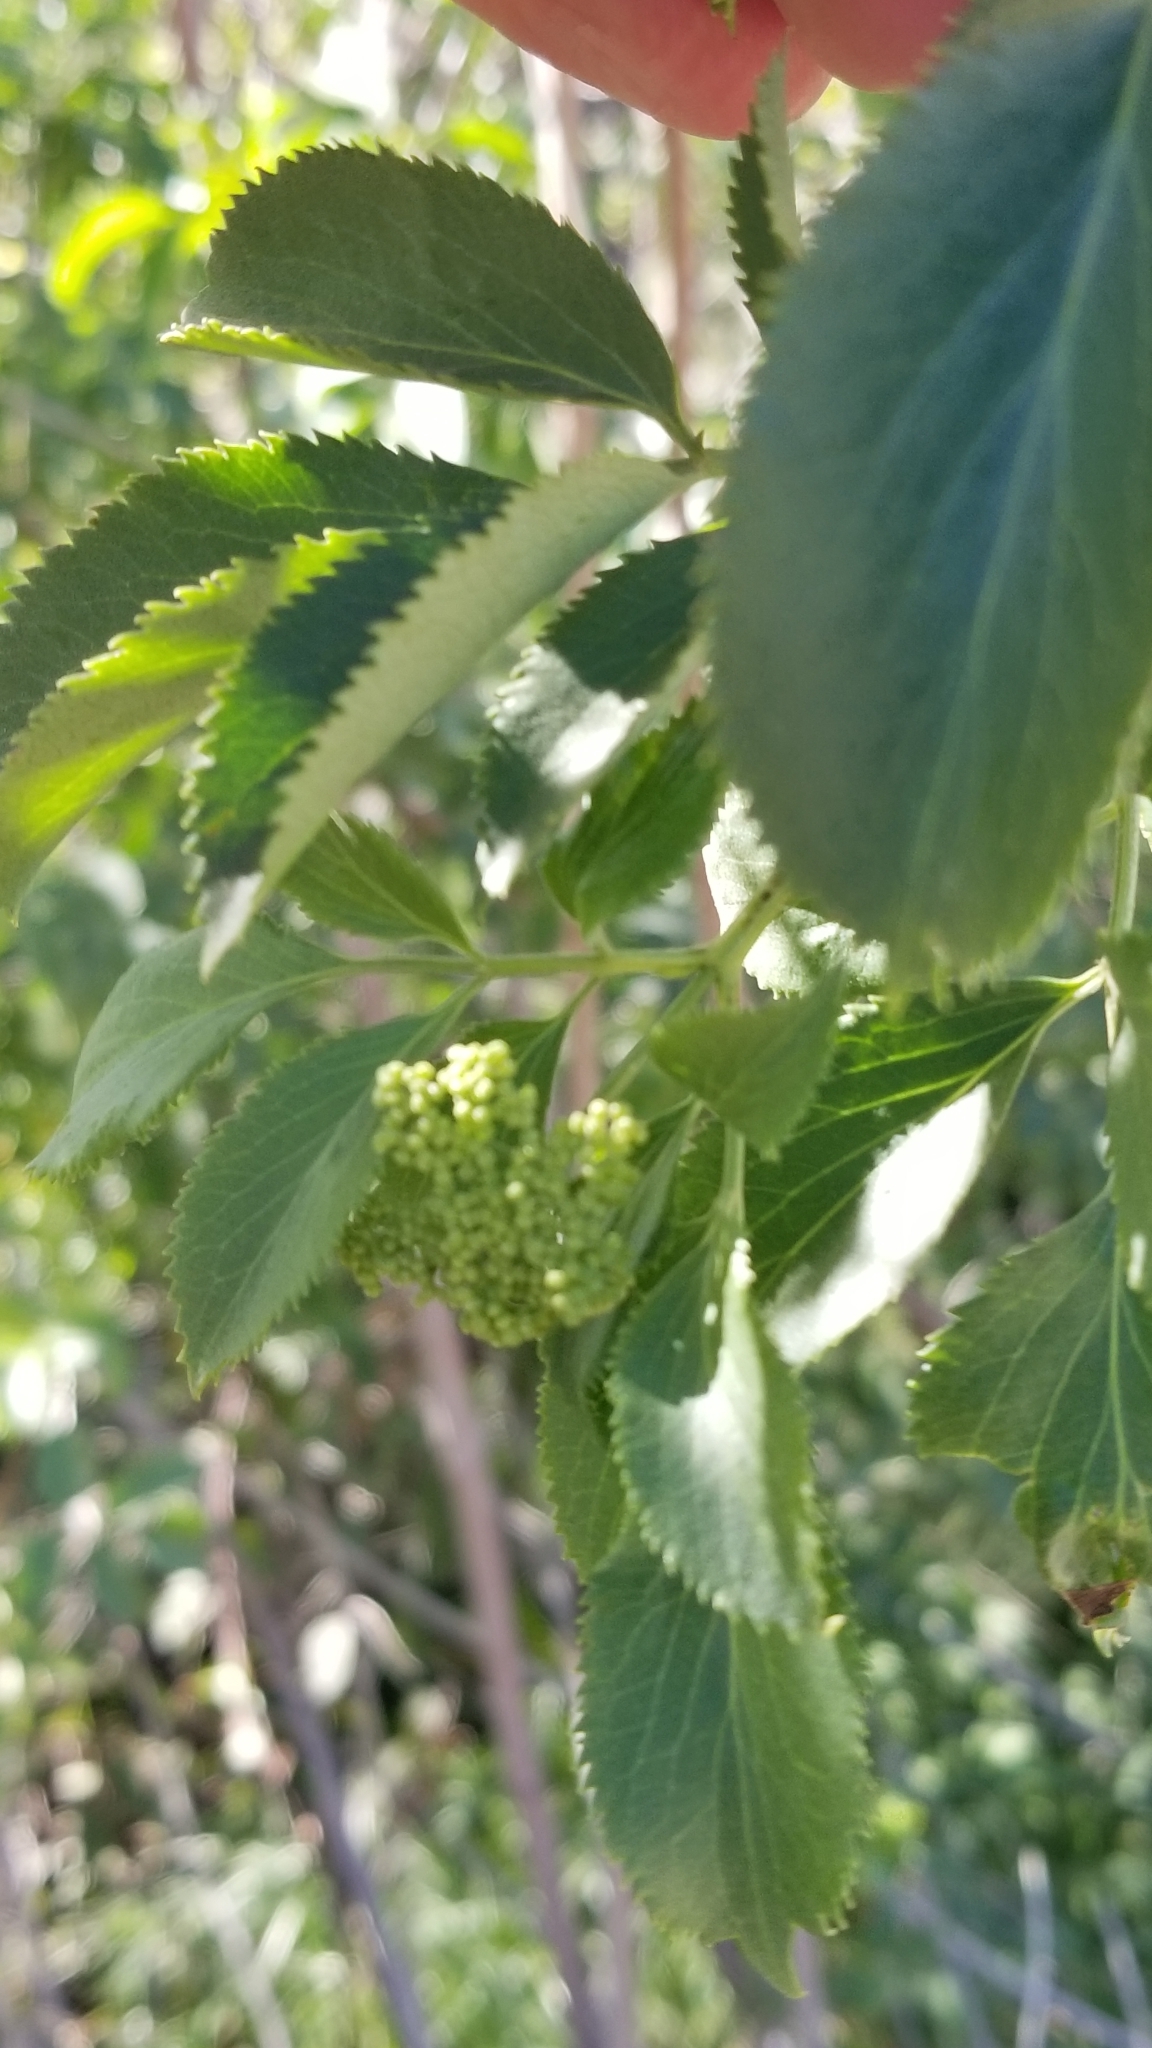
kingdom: Plantae
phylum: Tracheophyta
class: Magnoliopsida
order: Dipsacales
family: Viburnaceae
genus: Sambucus
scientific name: Sambucus cerulea
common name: Blue elder
